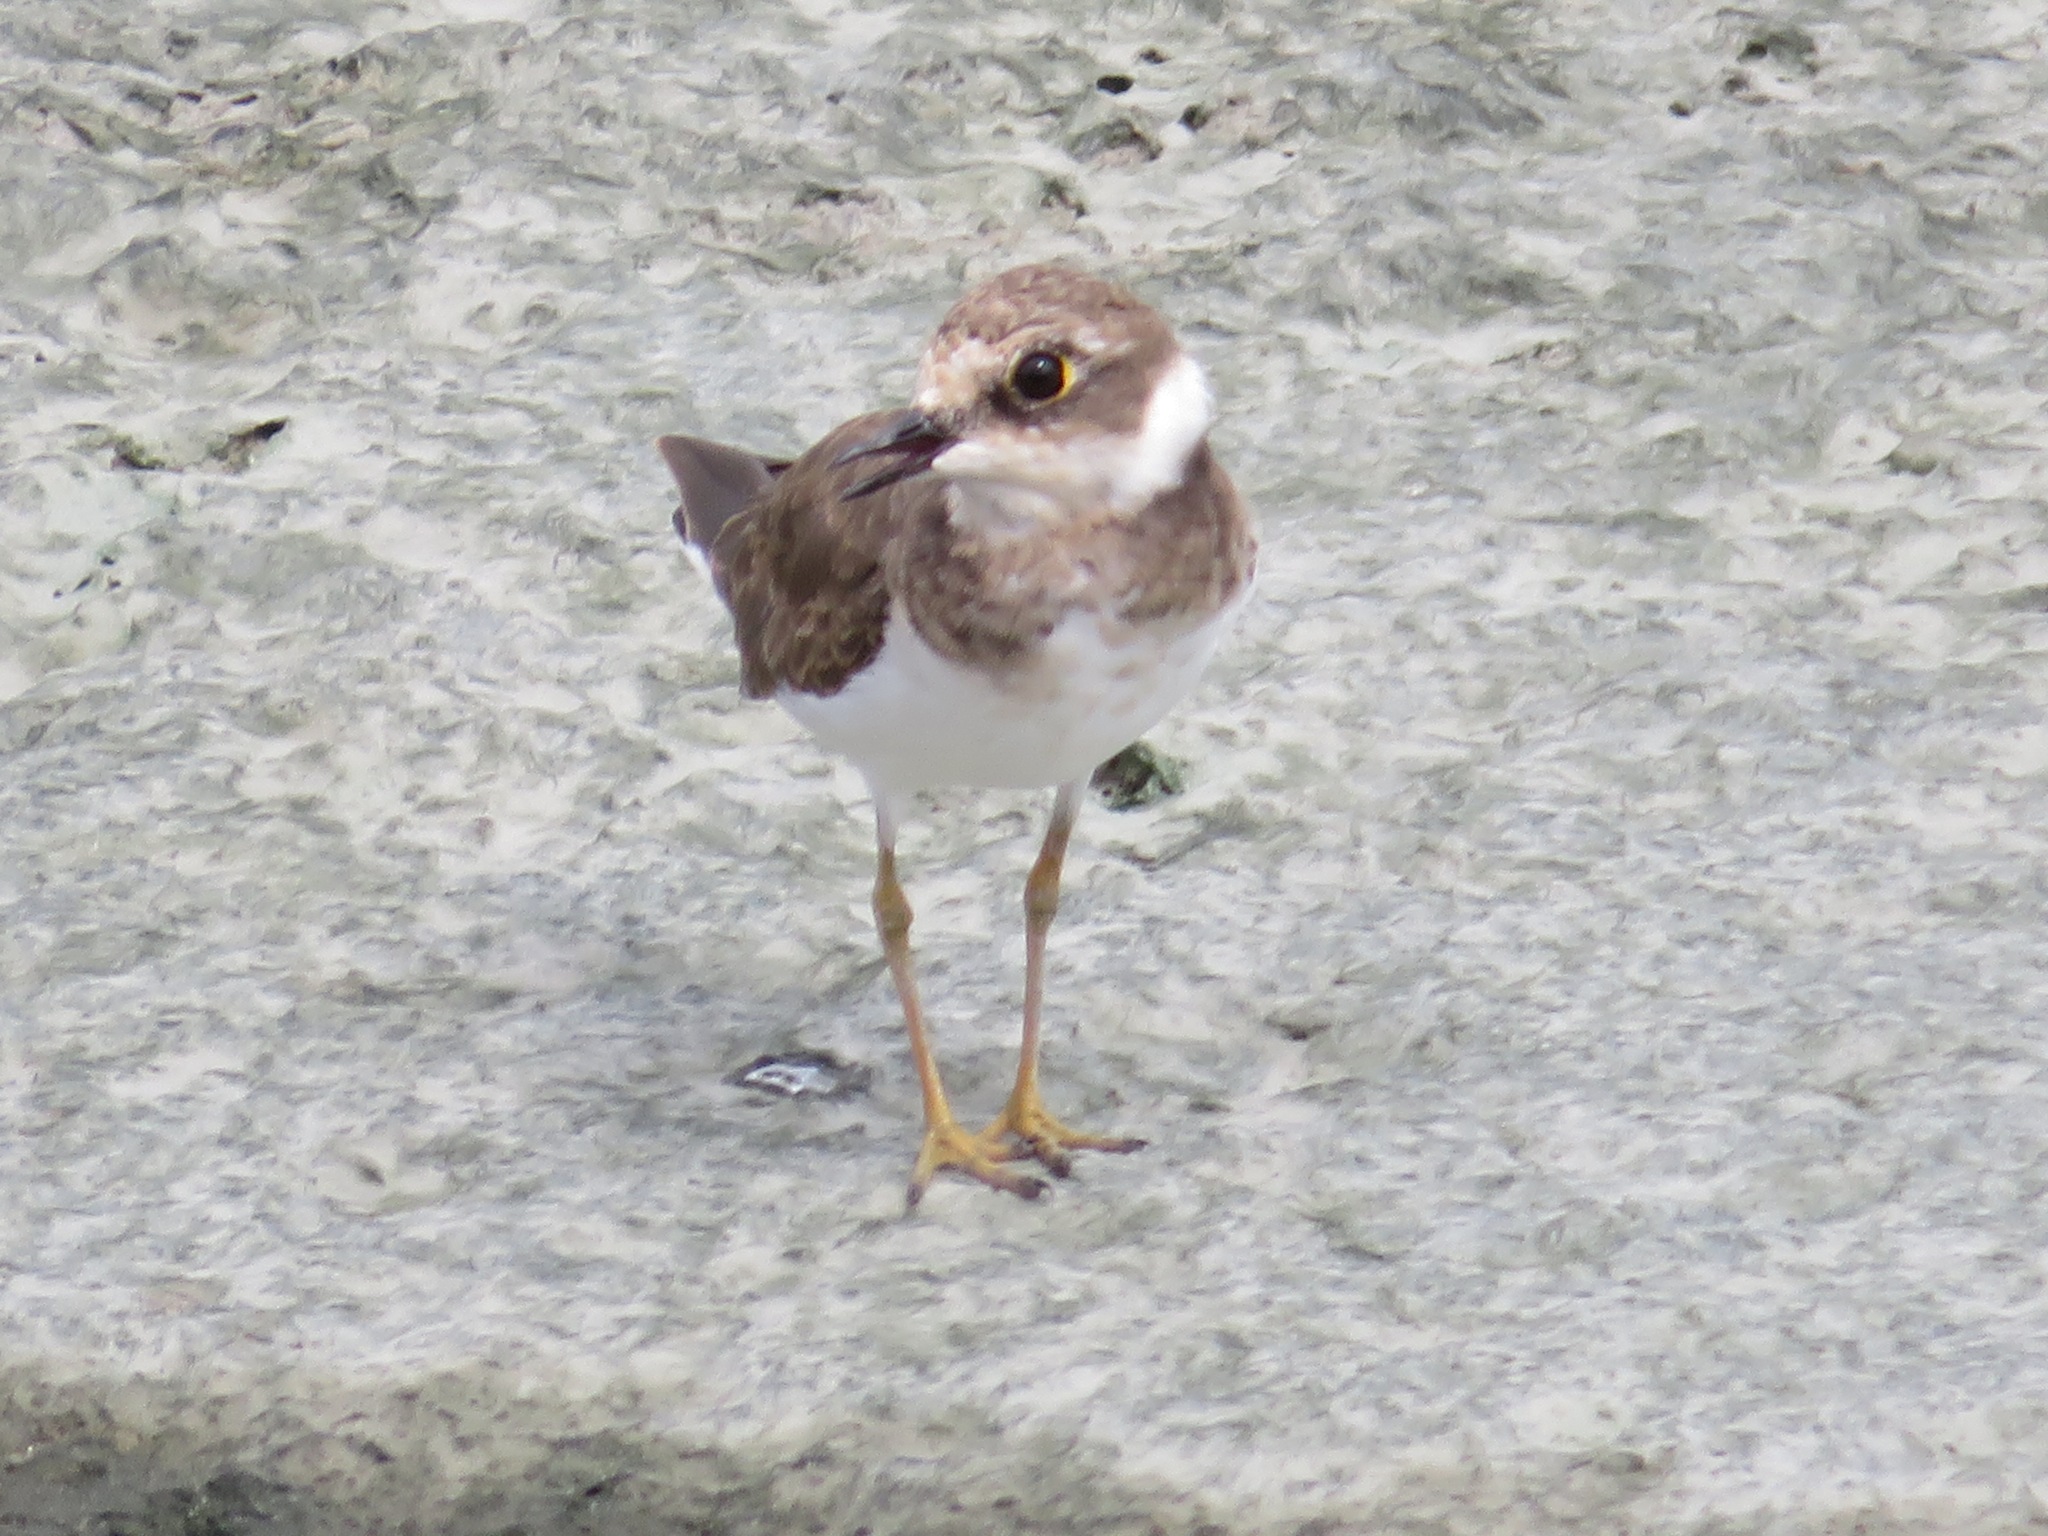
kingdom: Animalia
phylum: Chordata
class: Aves
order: Charadriiformes
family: Charadriidae
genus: Charadrius
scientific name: Charadrius dubius
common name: Little ringed plover
